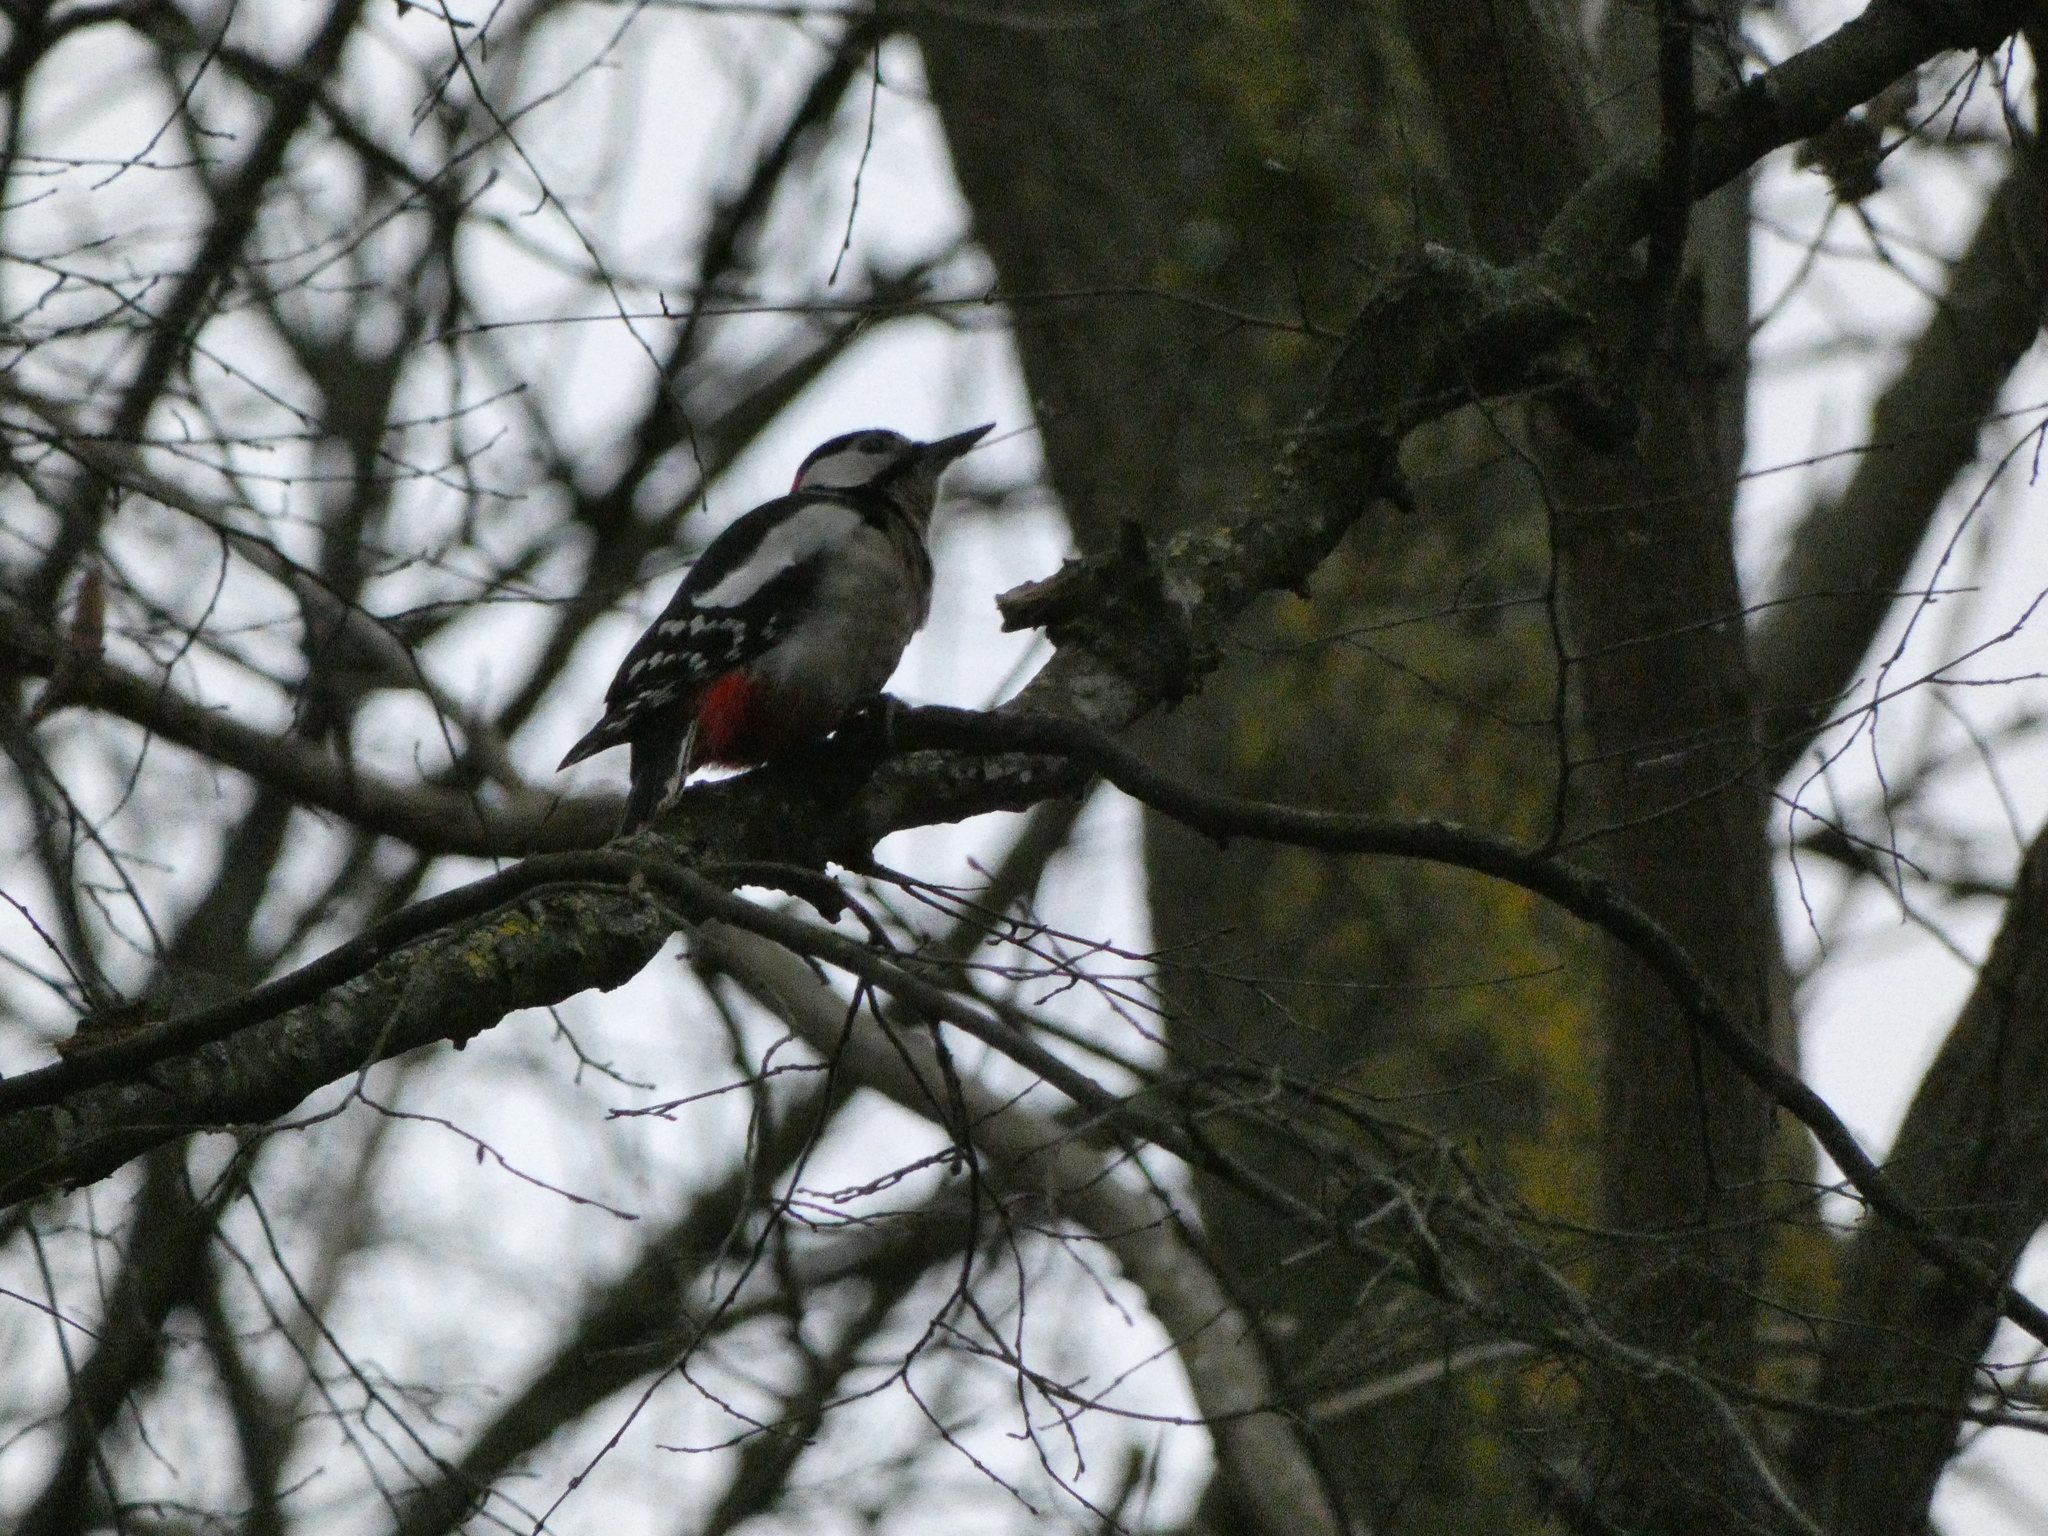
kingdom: Animalia
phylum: Chordata
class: Aves
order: Piciformes
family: Picidae
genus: Dendrocopos
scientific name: Dendrocopos major
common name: Great spotted woodpecker
